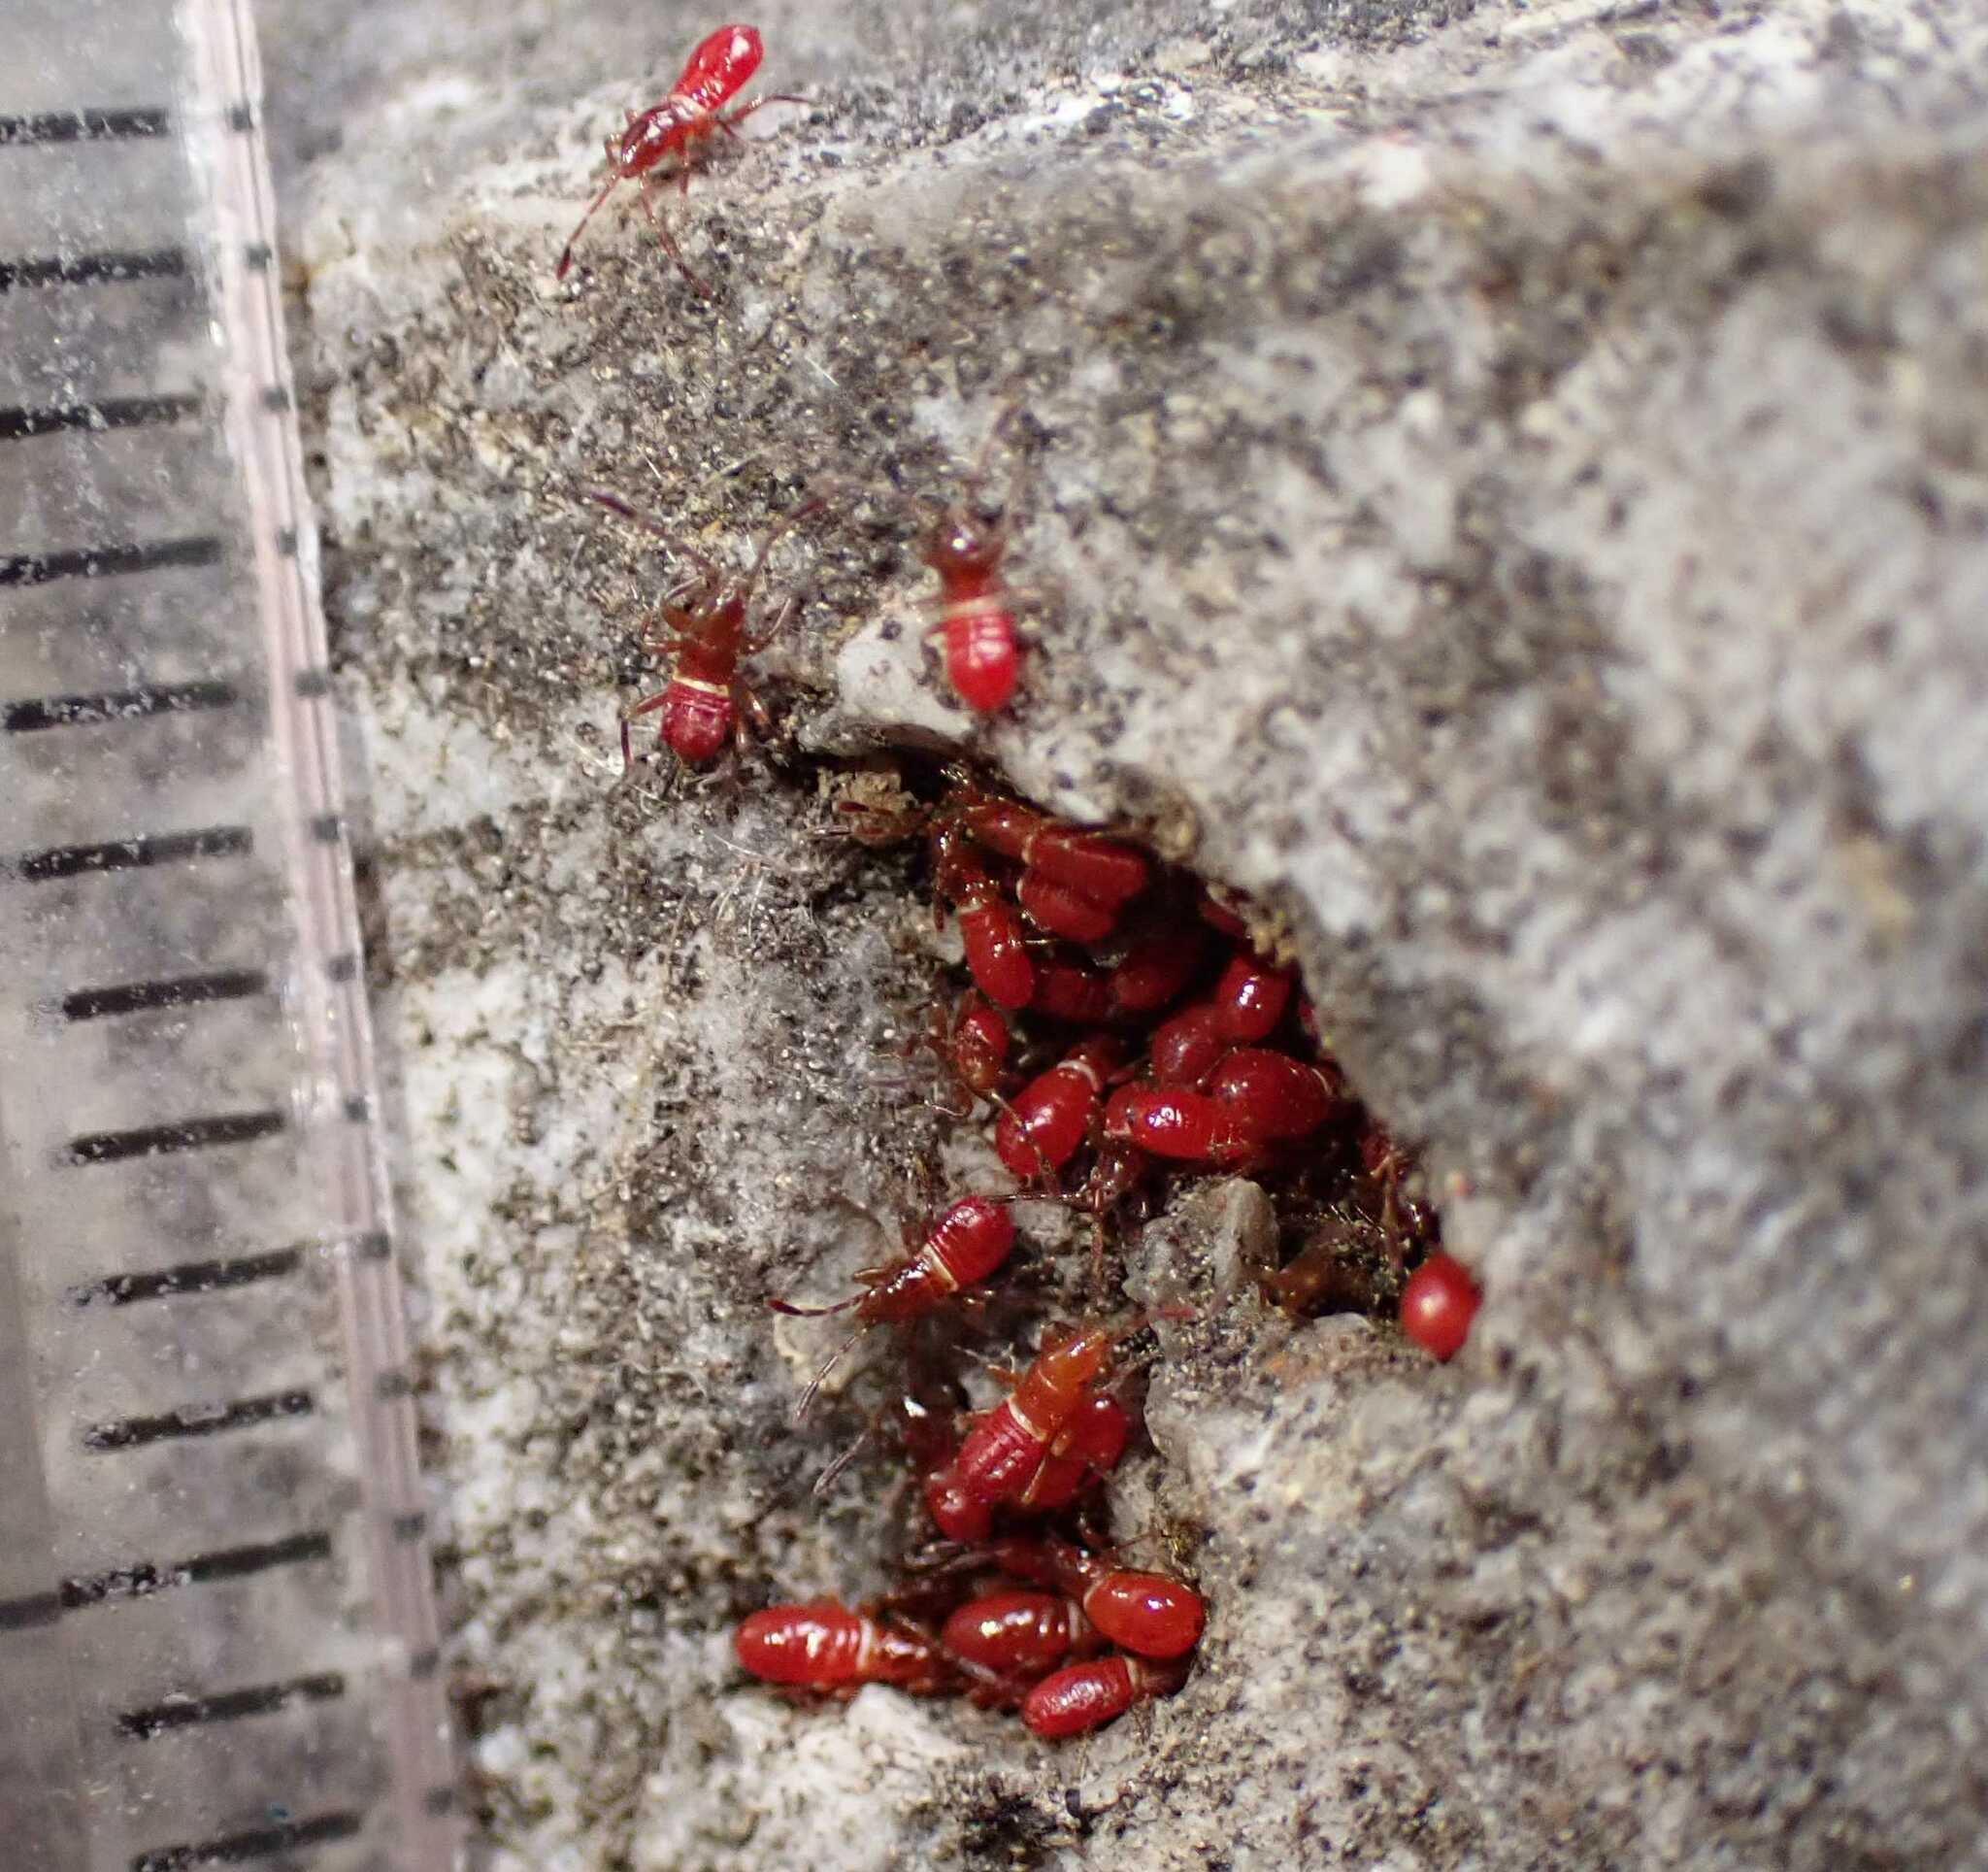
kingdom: Animalia
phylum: Arthropoda
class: Insecta
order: Hemiptera
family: Oxycarenidae
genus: Oxycarenus
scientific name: Oxycarenus lavaterae
